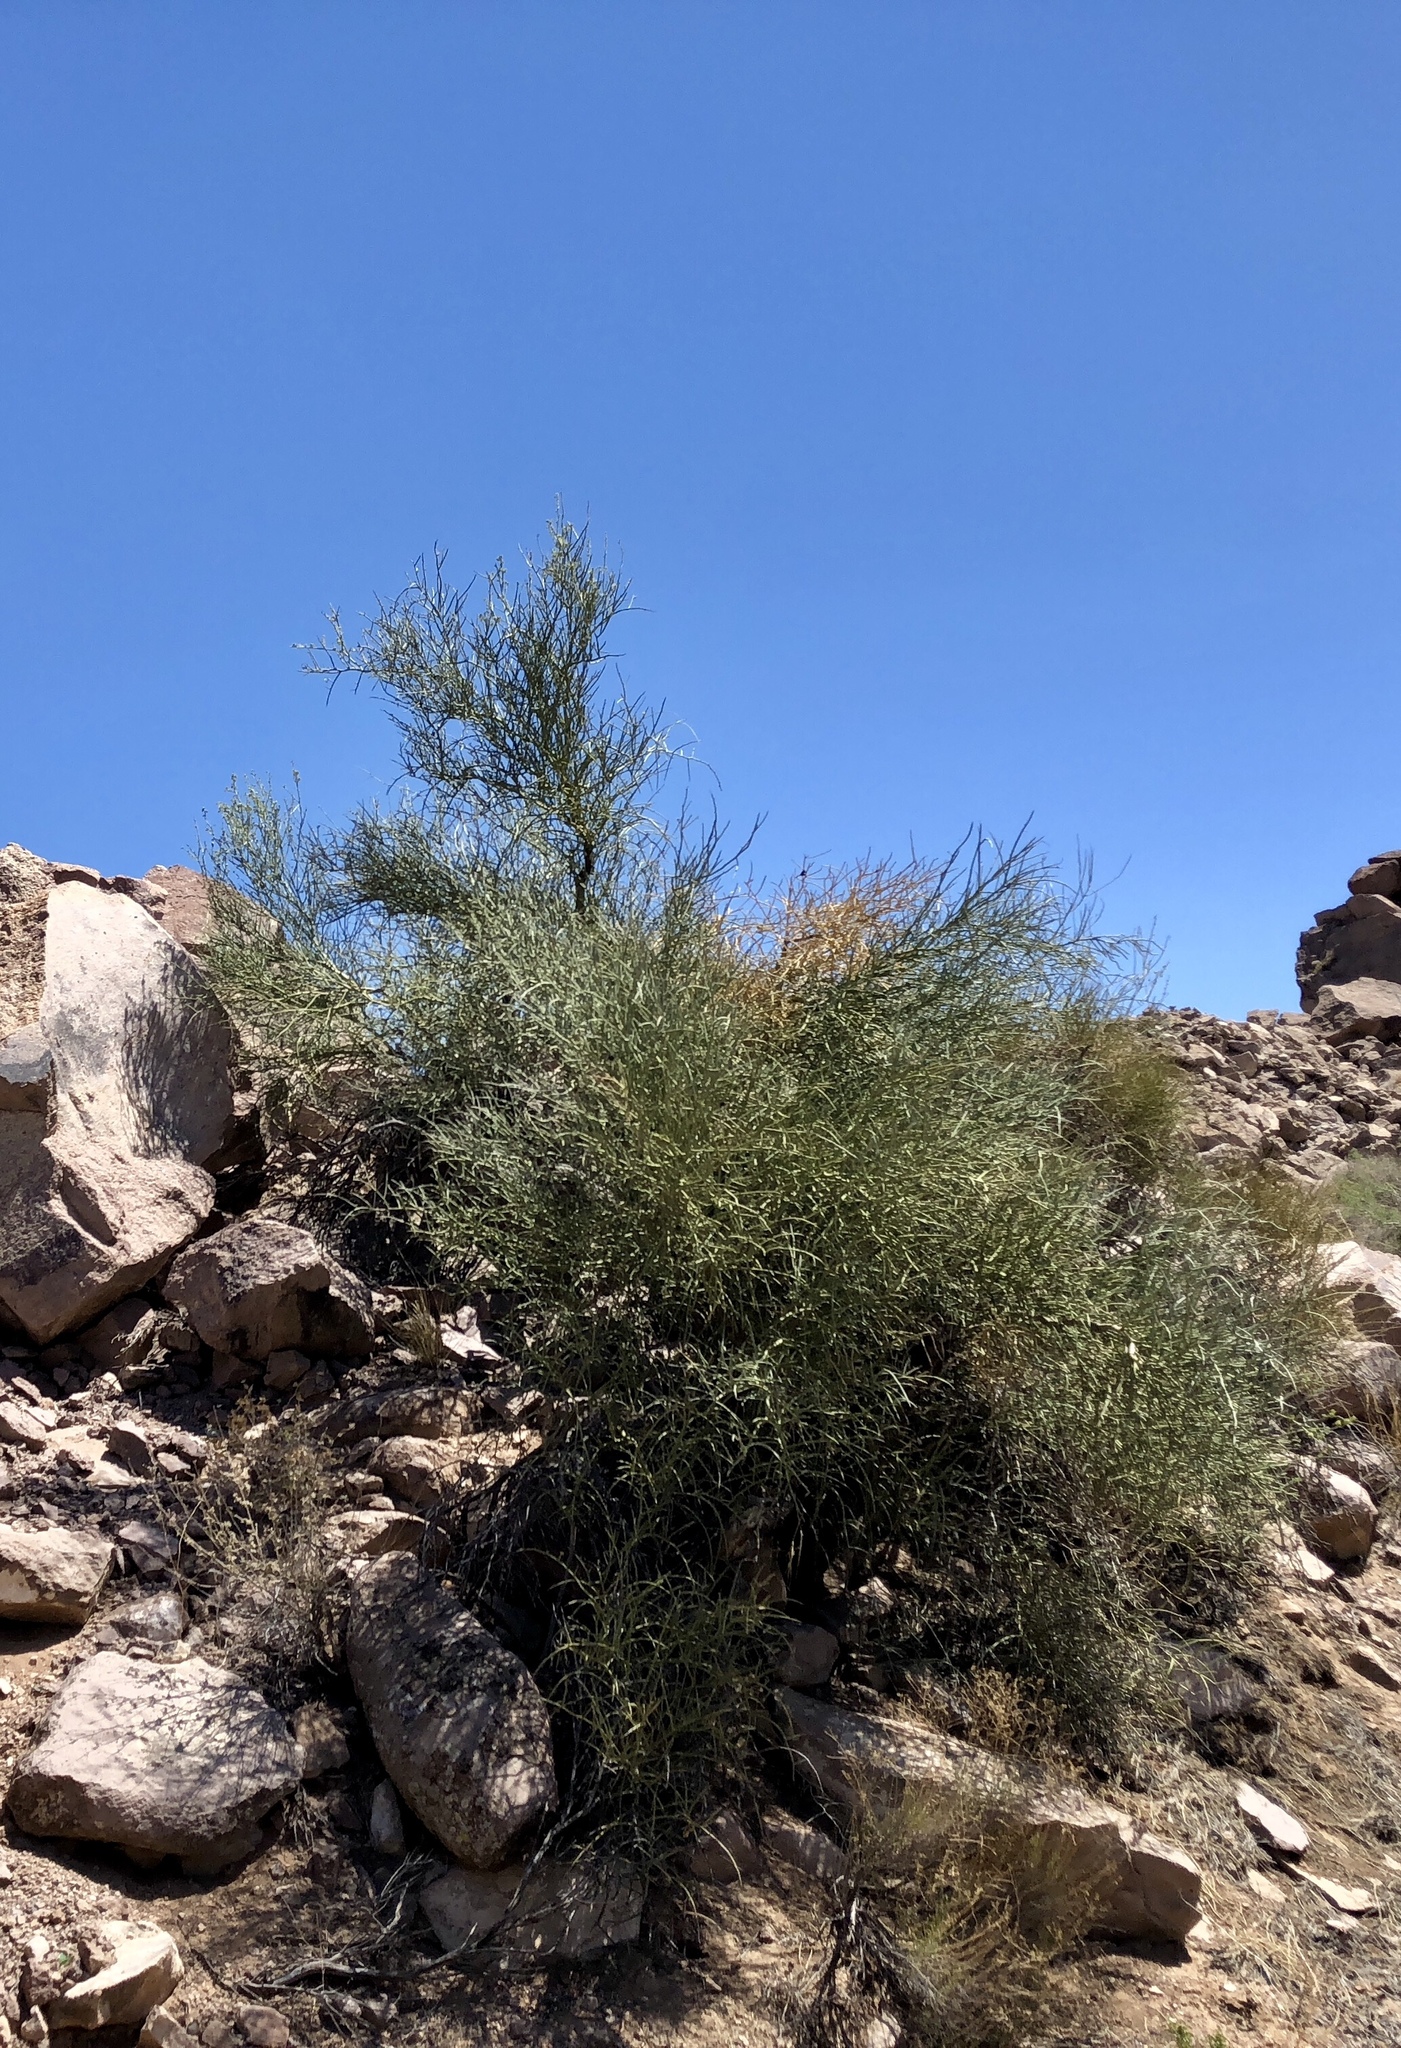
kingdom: Plantae
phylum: Tracheophyta
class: Magnoliopsida
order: Celastrales
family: Celastraceae
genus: Canotia
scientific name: Canotia holacantha
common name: Crucifixion thorns
